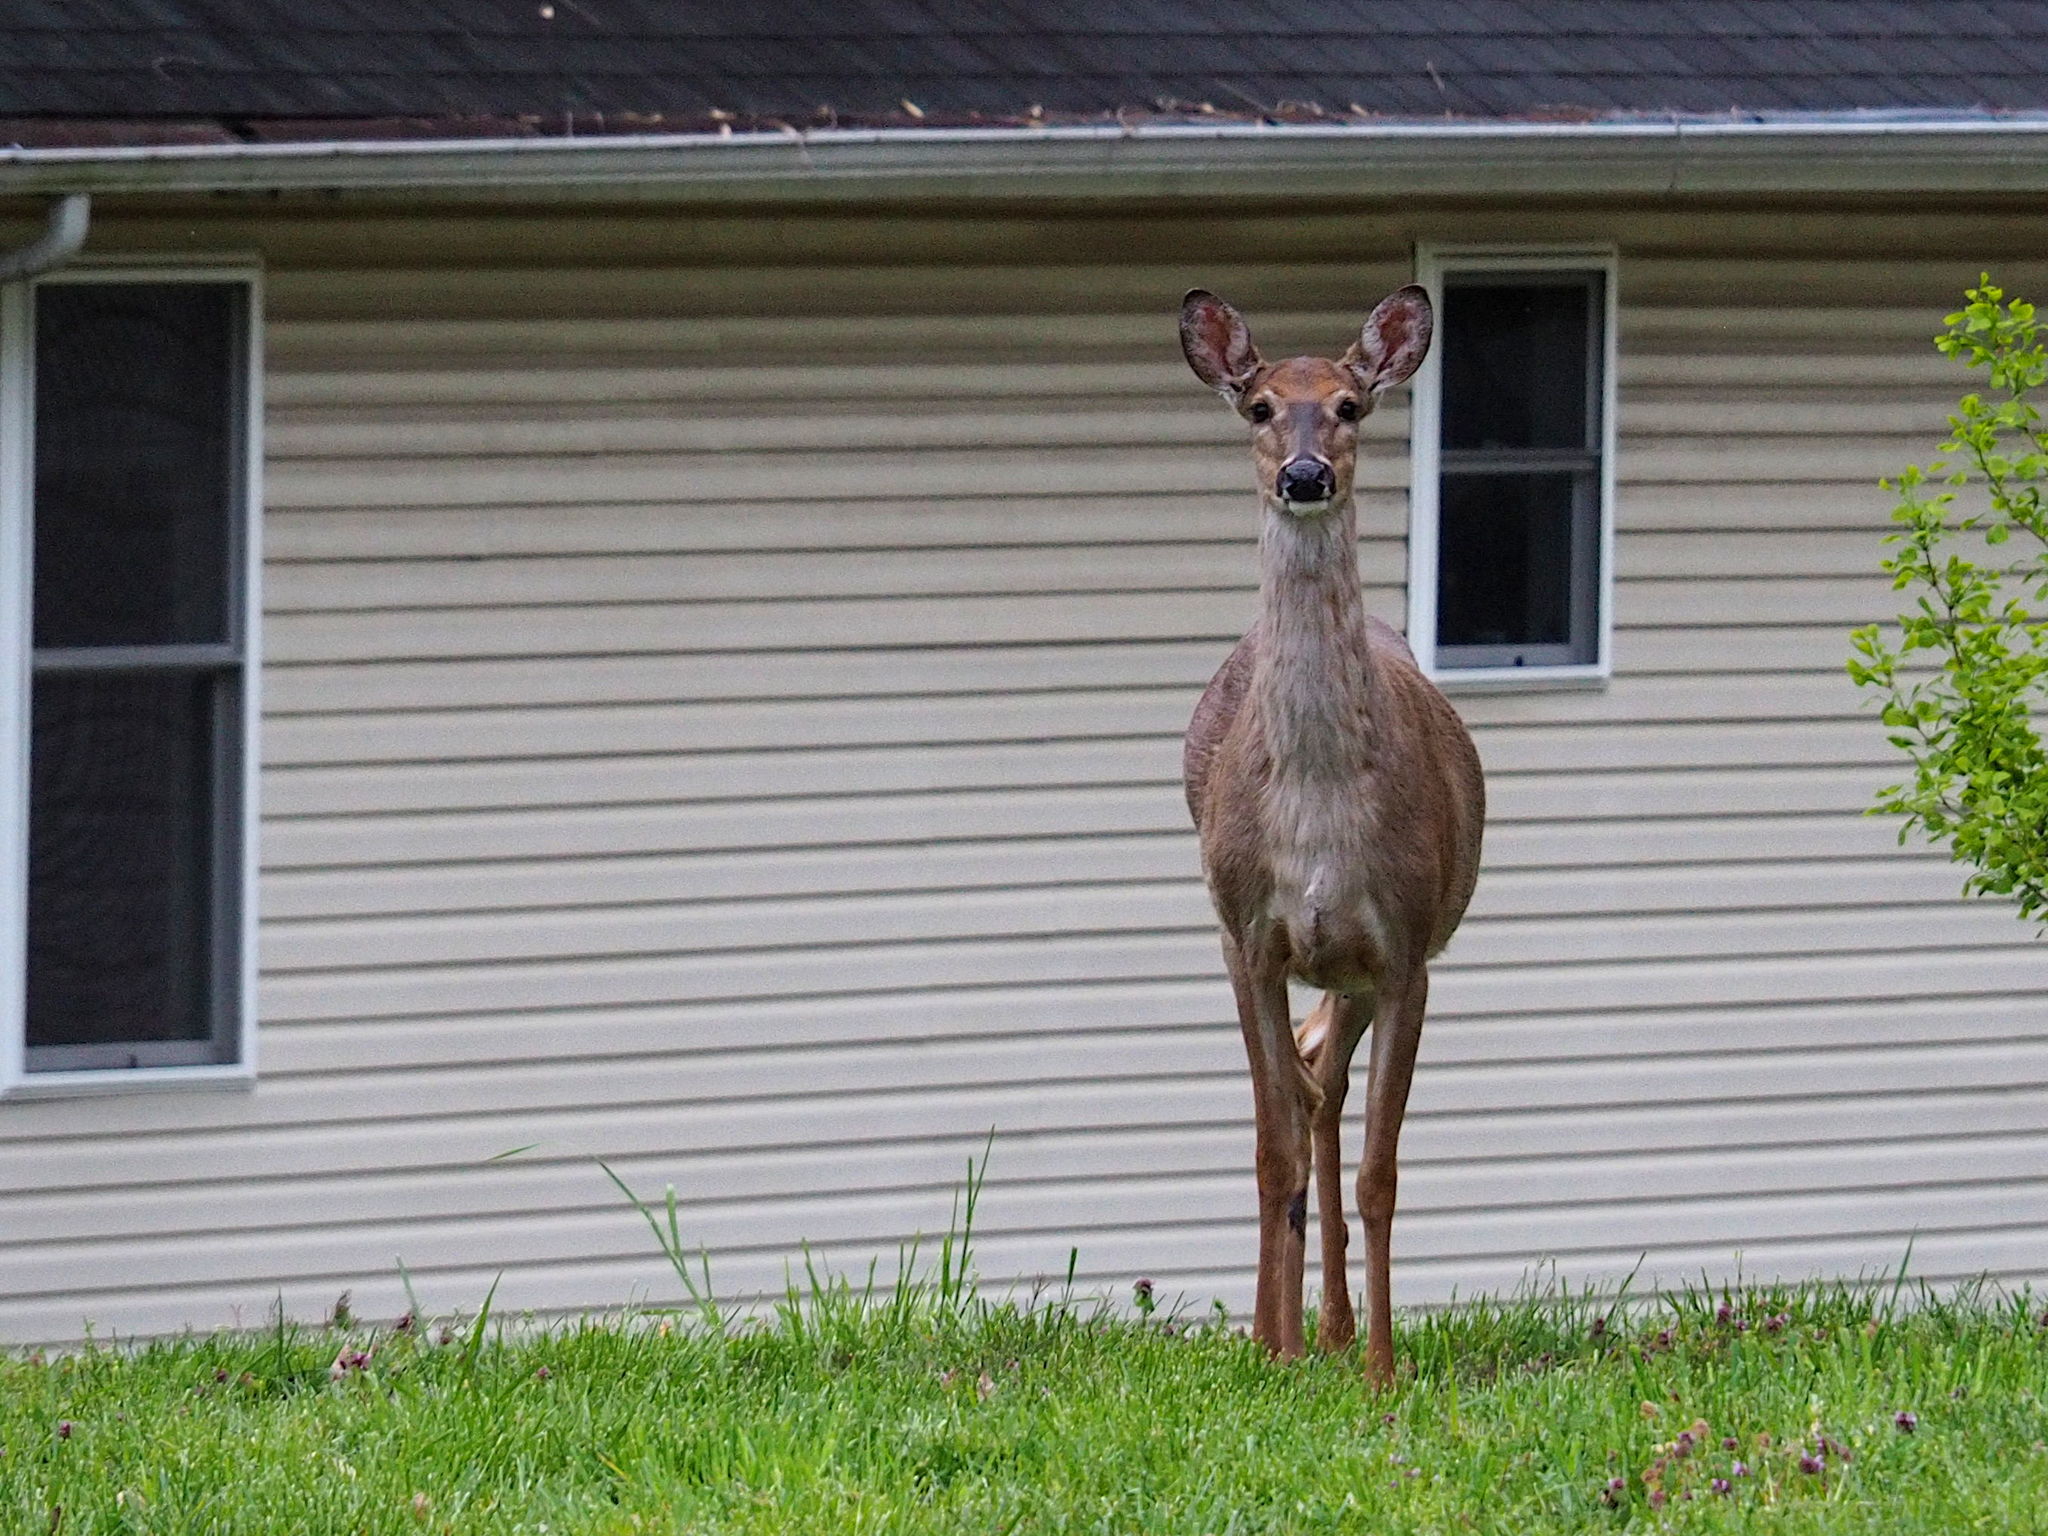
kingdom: Animalia
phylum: Chordata
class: Mammalia
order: Artiodactyla
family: Cervidae
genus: Odocoileus
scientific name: Odocoileus virginianus
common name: White-tailed deer
